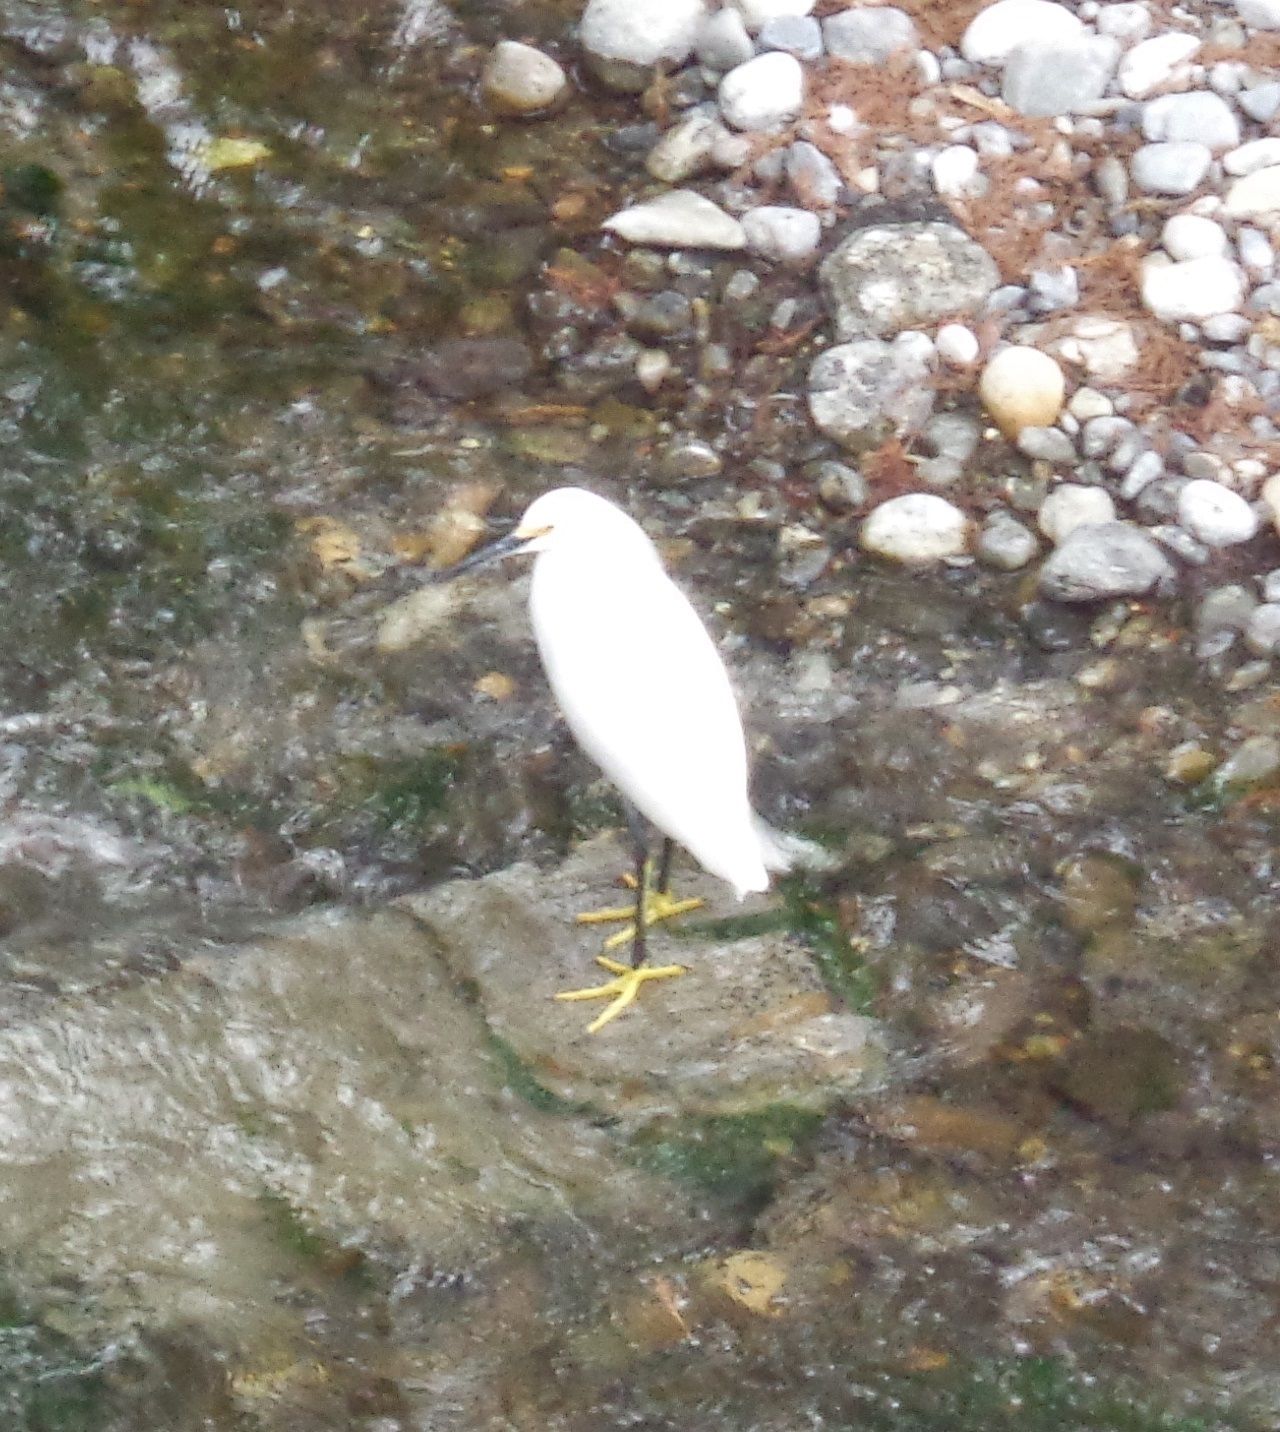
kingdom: Animalia
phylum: Chordata
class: Aves
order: Pelecaniformes
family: Ardeidae
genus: Egretta
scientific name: Egretta thula
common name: Snowy egret
